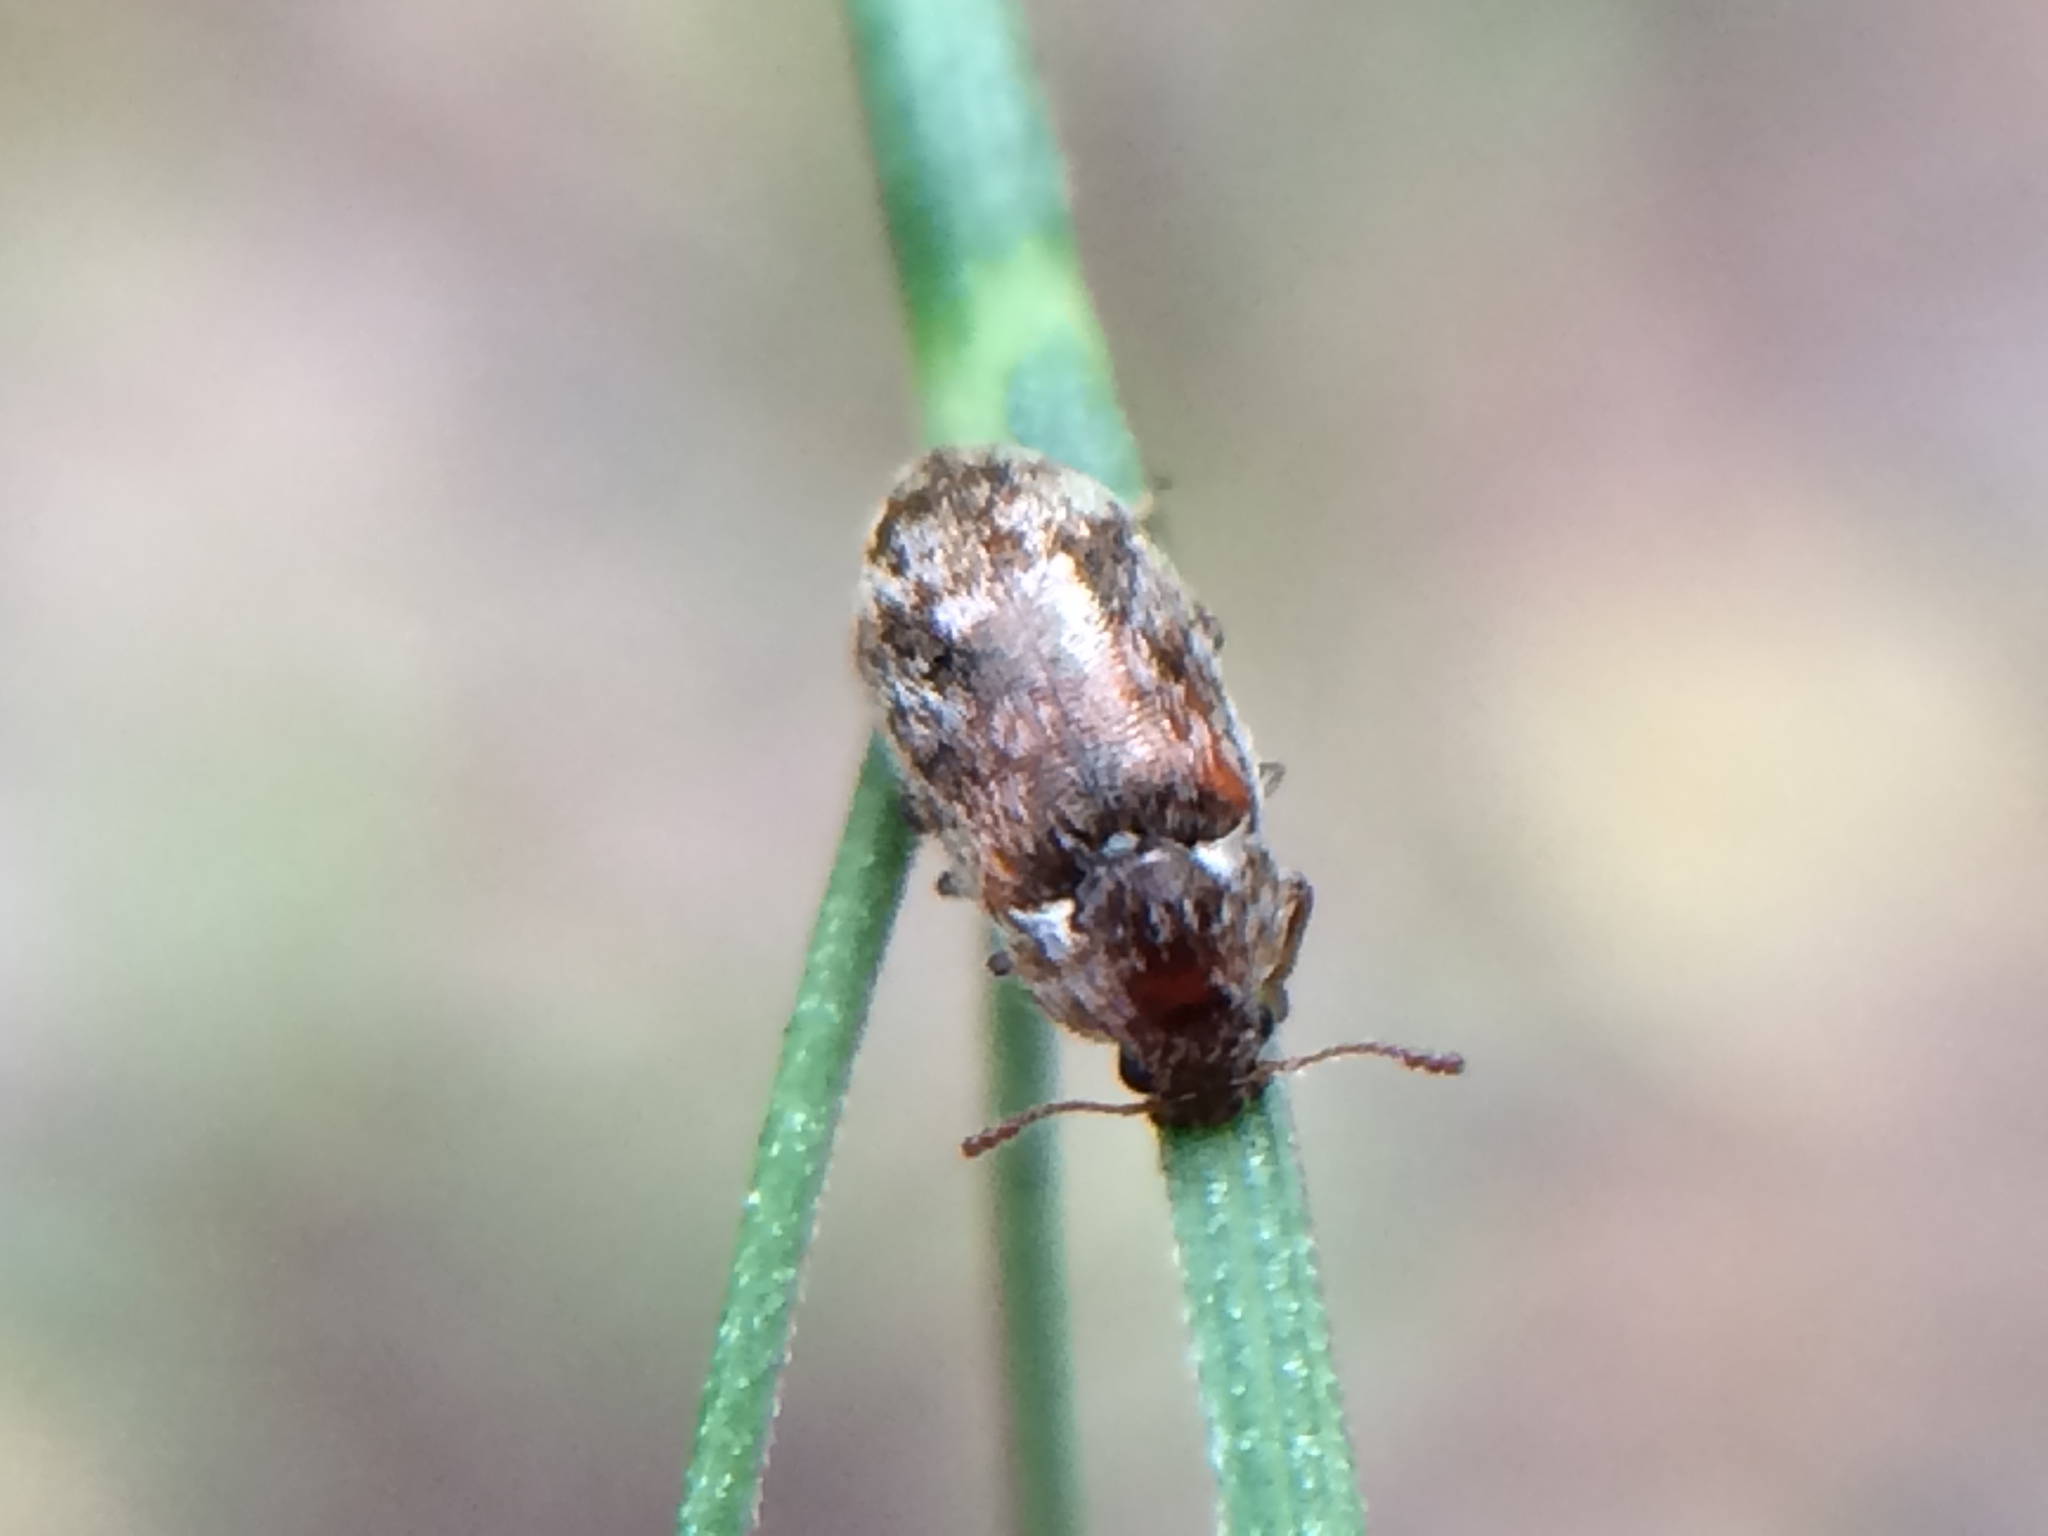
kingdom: Animalia
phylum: Arthropoda
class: Insecta
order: Coleoptera
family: Byturidae
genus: Xerasia
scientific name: Xerasia grisescens
